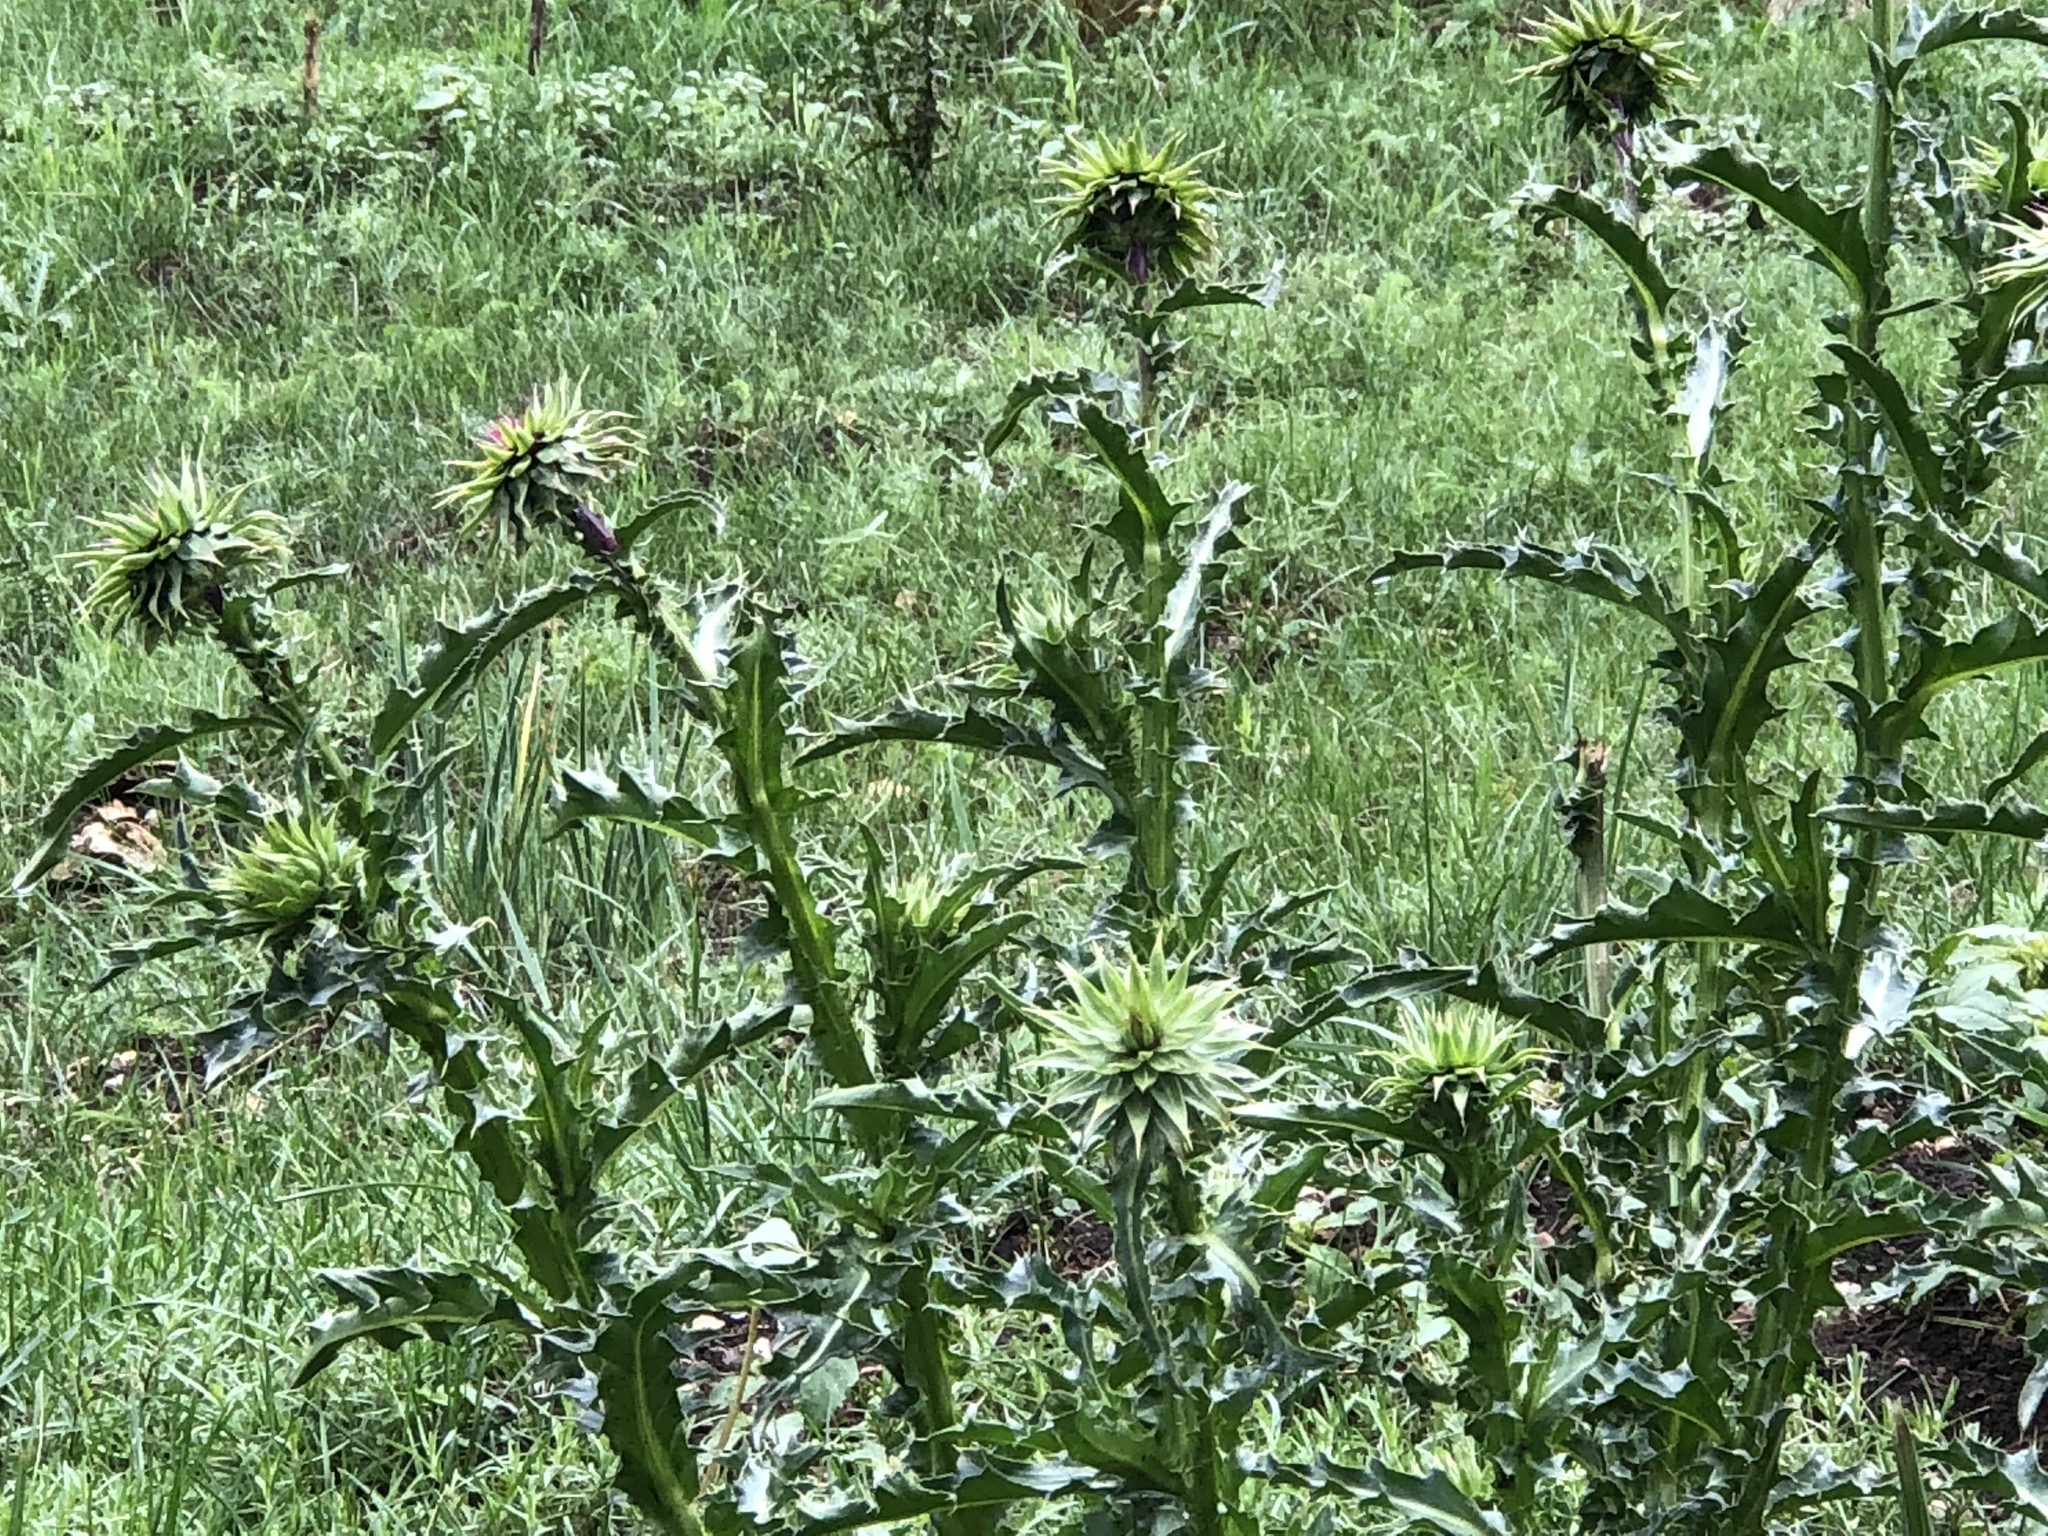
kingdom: Plantae
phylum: Tracheophyta
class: Magnoliopsida
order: Asterales
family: Asteraceae
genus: Carduus
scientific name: Carduus nutans
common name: Musk thistle
